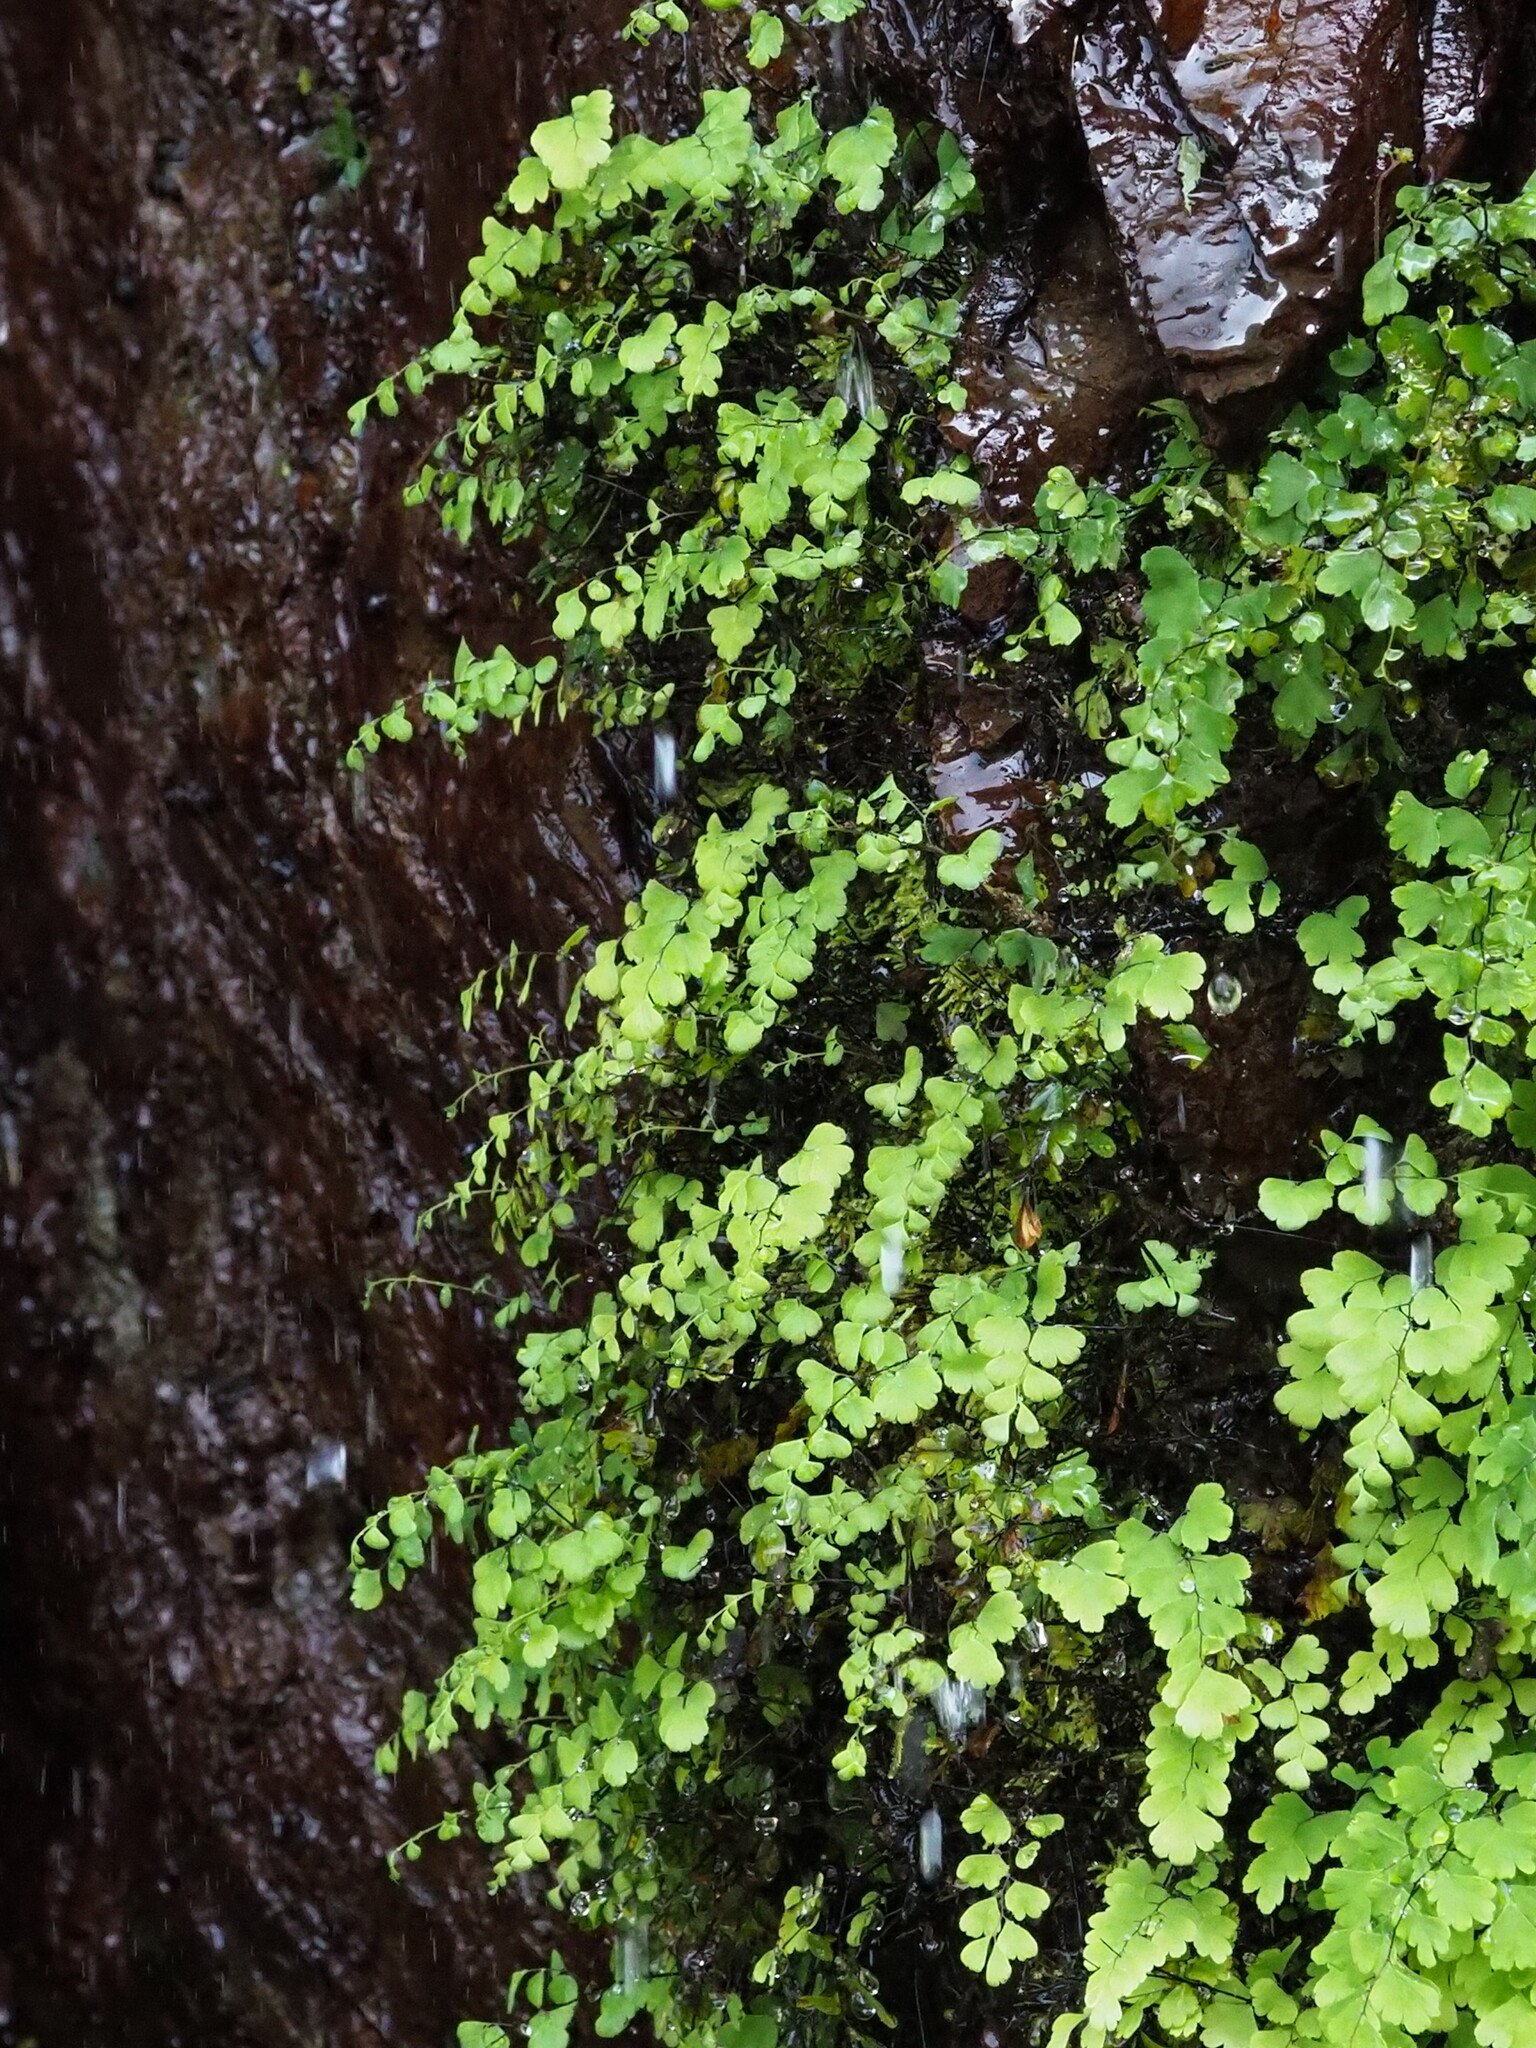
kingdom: Plantae
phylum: Tracheophyta
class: Polypodiopsida
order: Polypodiales
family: Pteridaceae
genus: Adiantum
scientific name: Adiantum capillus-veneris
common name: Maidenhair fern
